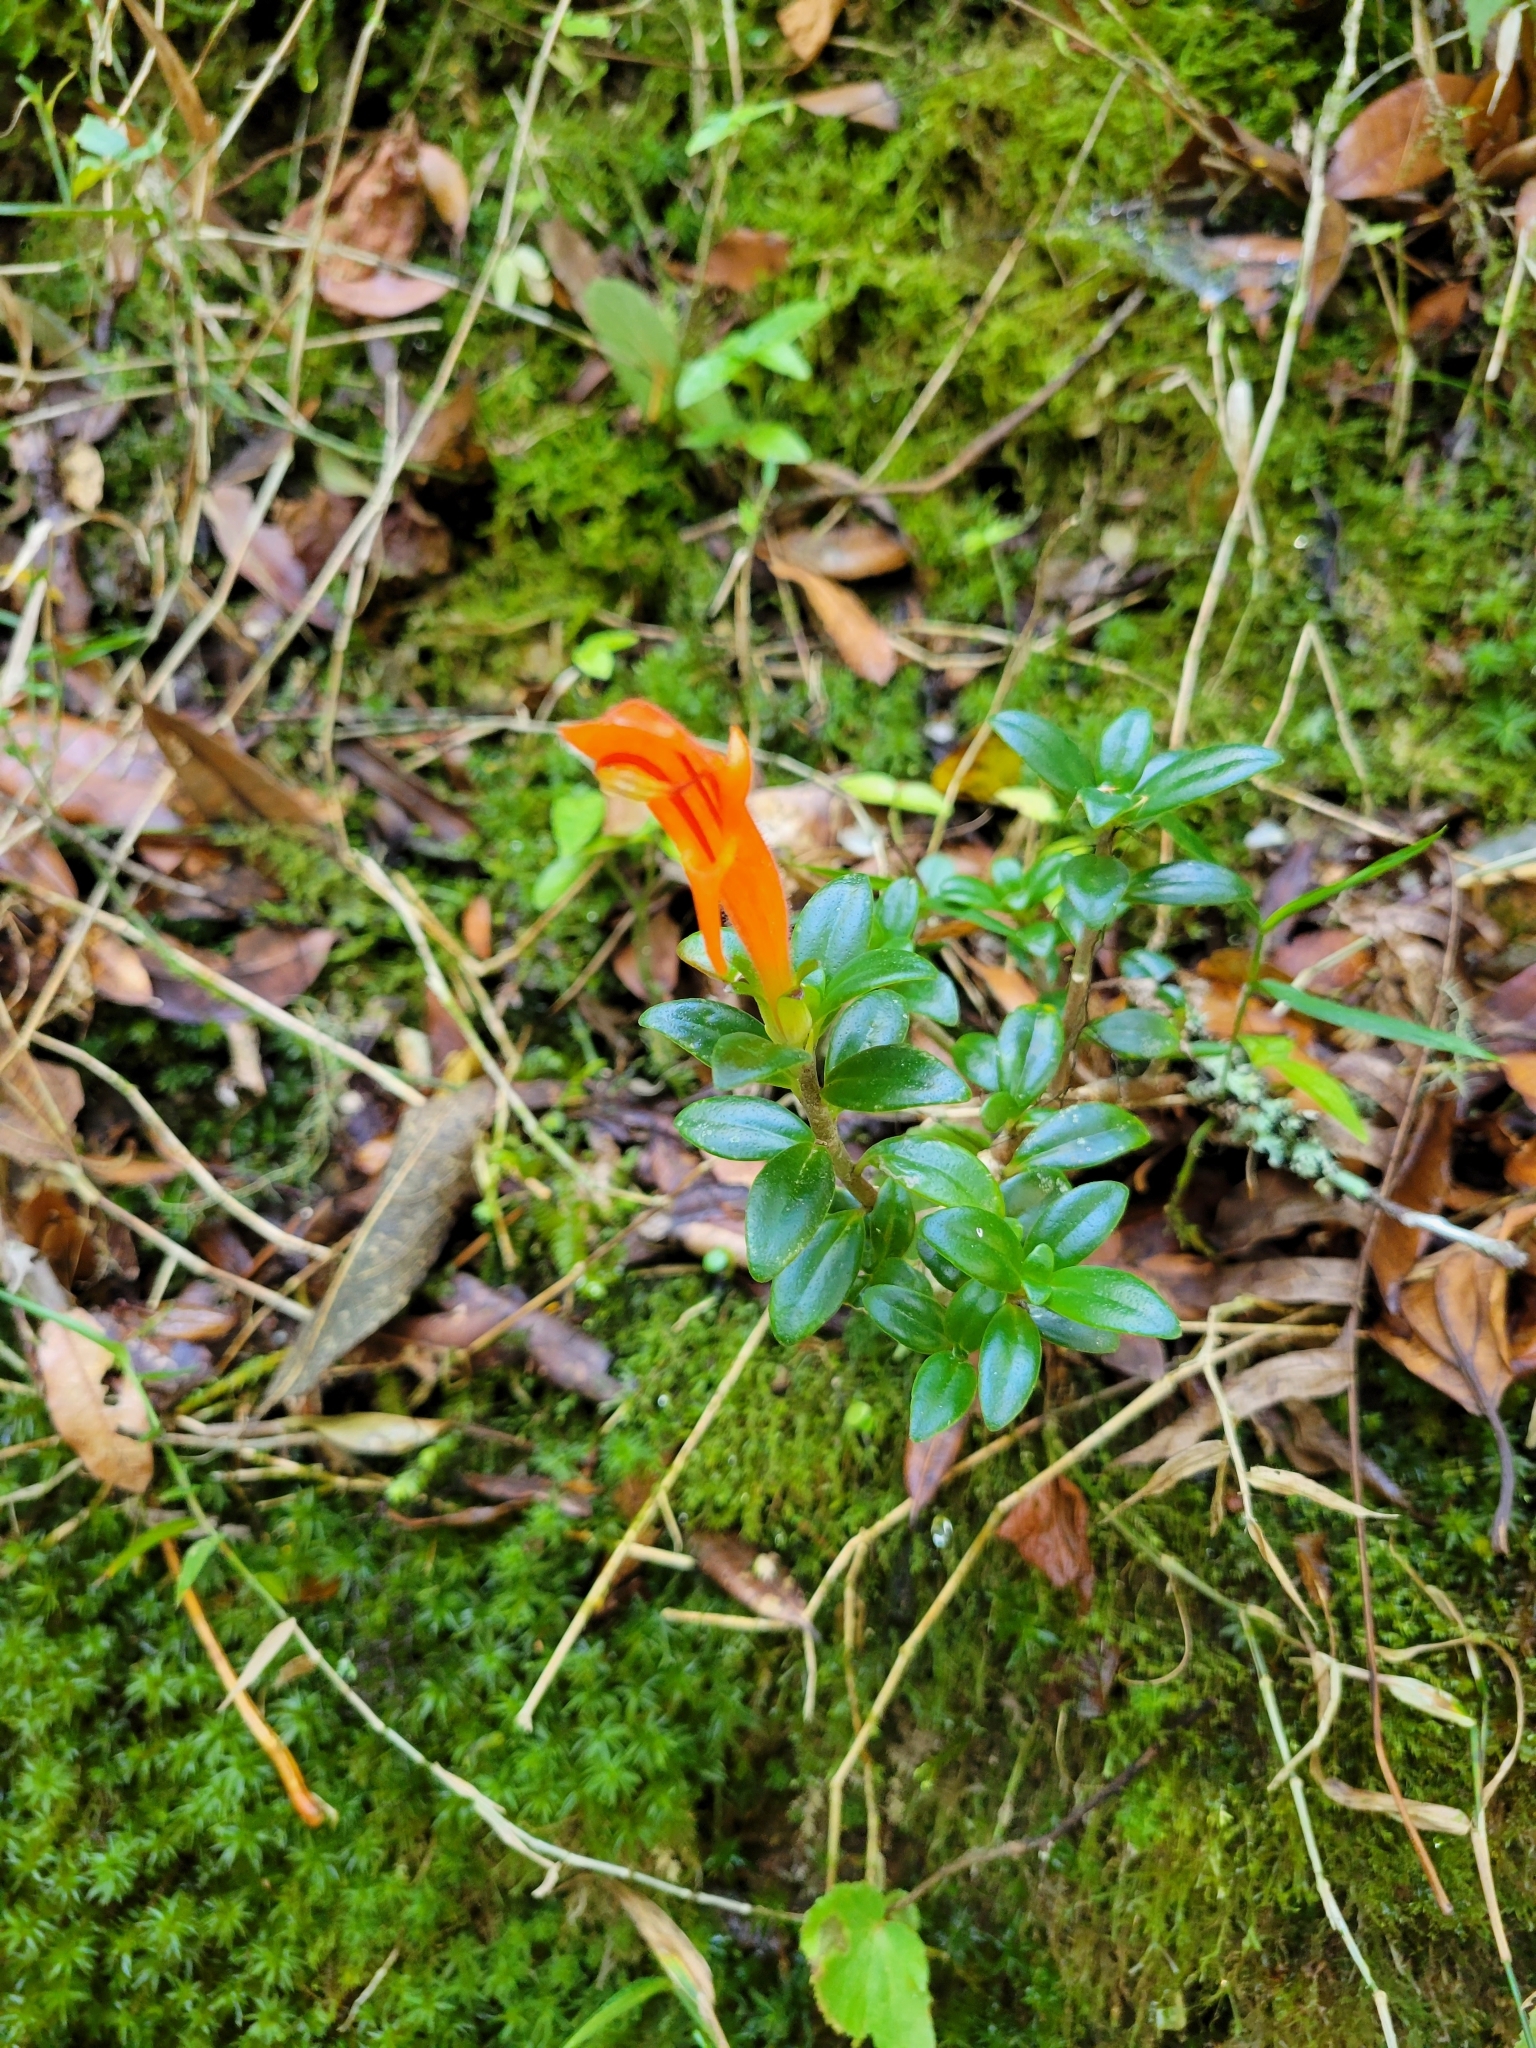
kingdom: Plantae
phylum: Tracheophyta
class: Magnoliopsida
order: Lamiales
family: Gesneriaceae
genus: Columnea
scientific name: Columnea glabra
